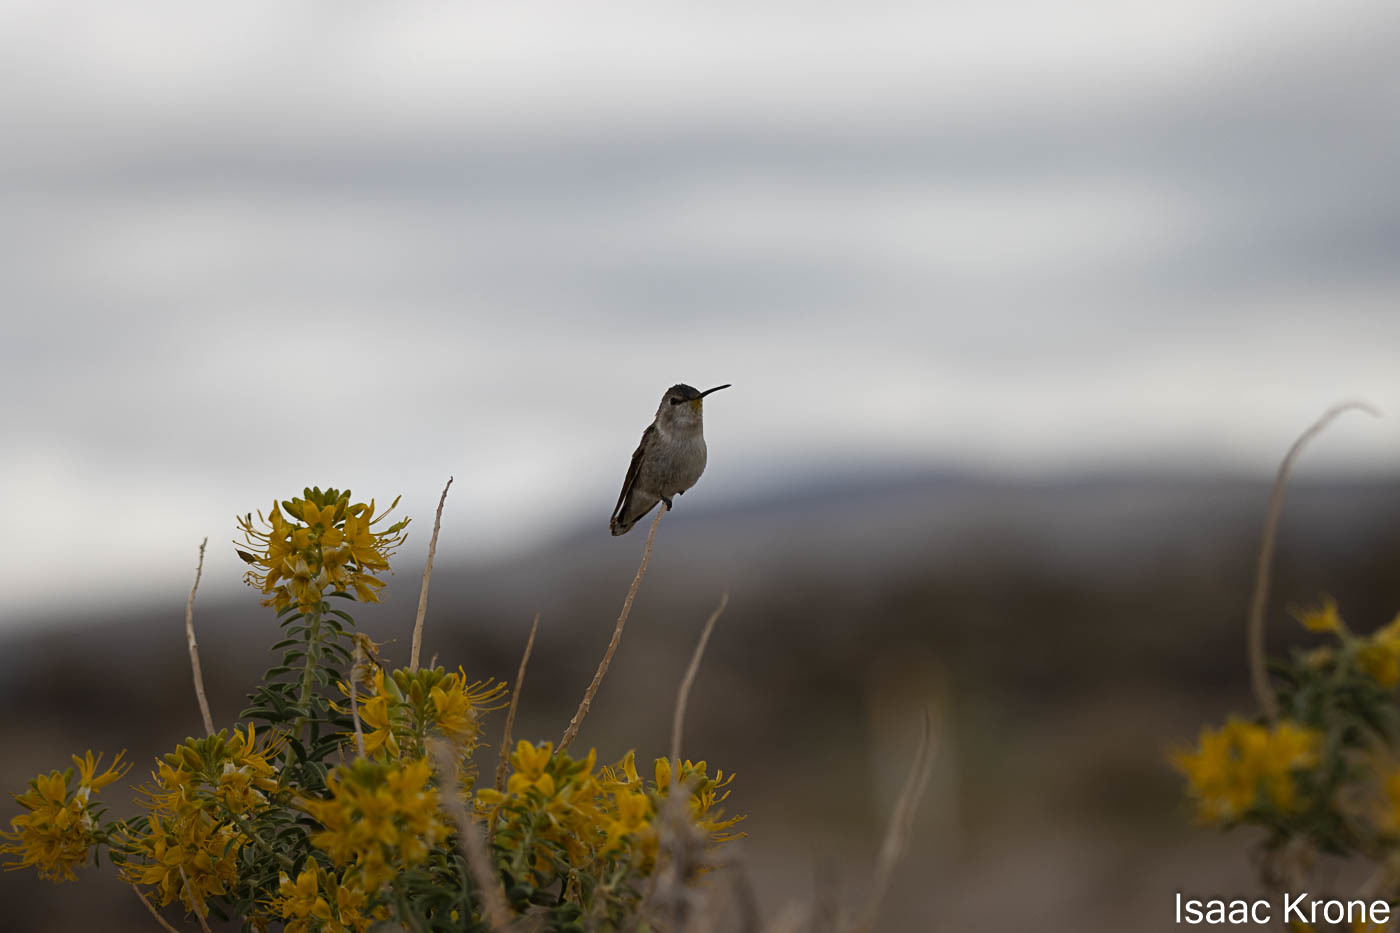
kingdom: Animalia
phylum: Chordata
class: Aves
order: Apodiformes
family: Trochilidae
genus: Calypte
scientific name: Calypte costae
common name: Costa's hummingbird
